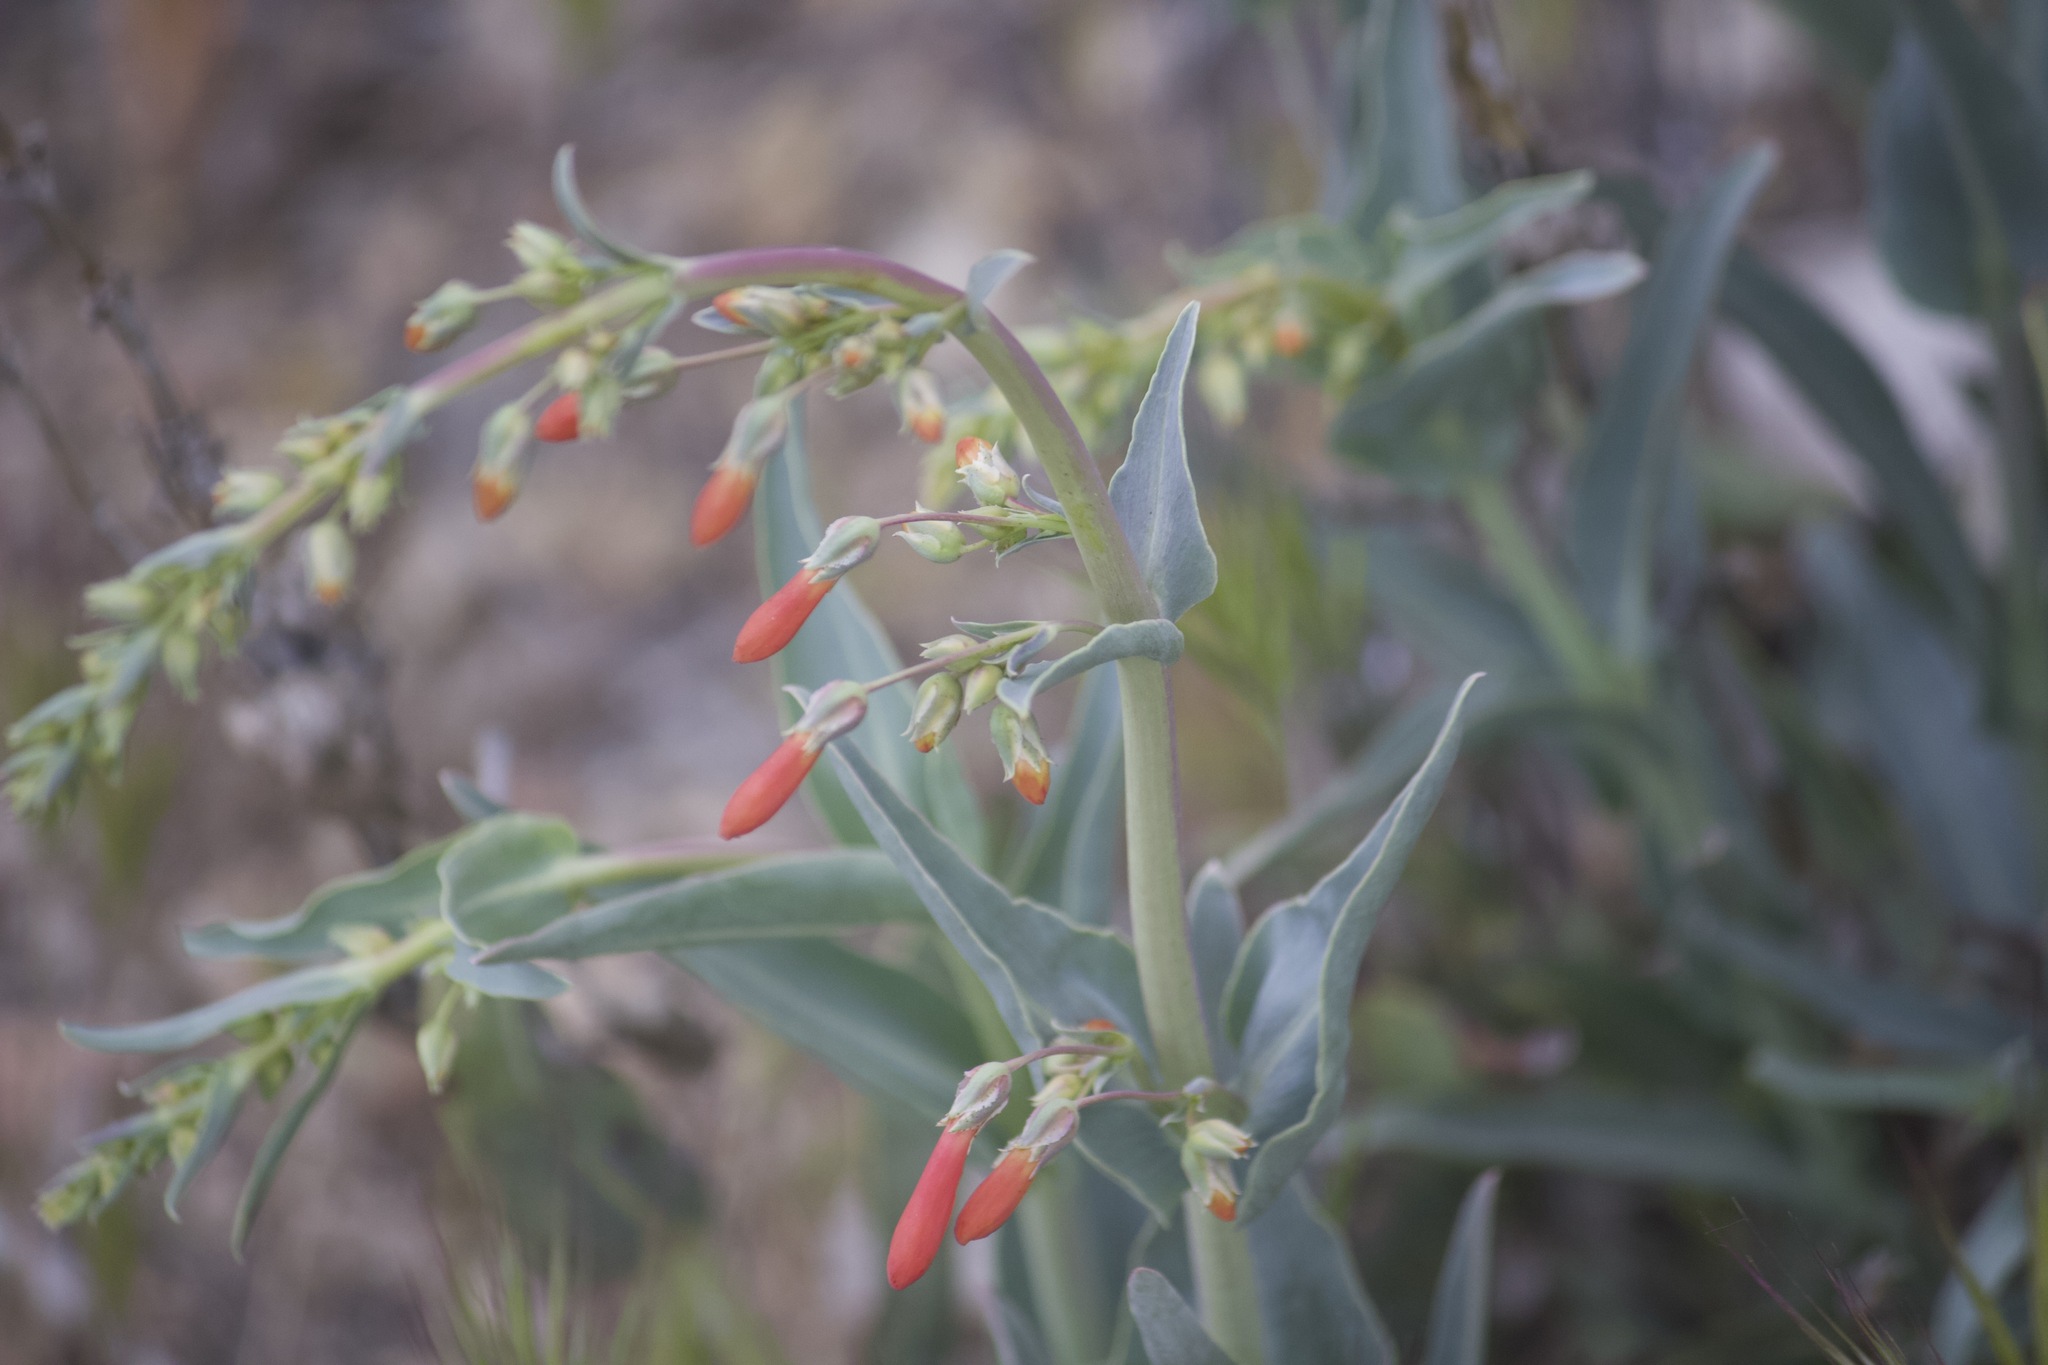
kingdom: Plantae
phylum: Tracheophyta
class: Magnoliopsida
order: Lamiales
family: Plantaginaceae
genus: Penstemon
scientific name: Penstemon centranthifolius
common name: Scarlet bugler
